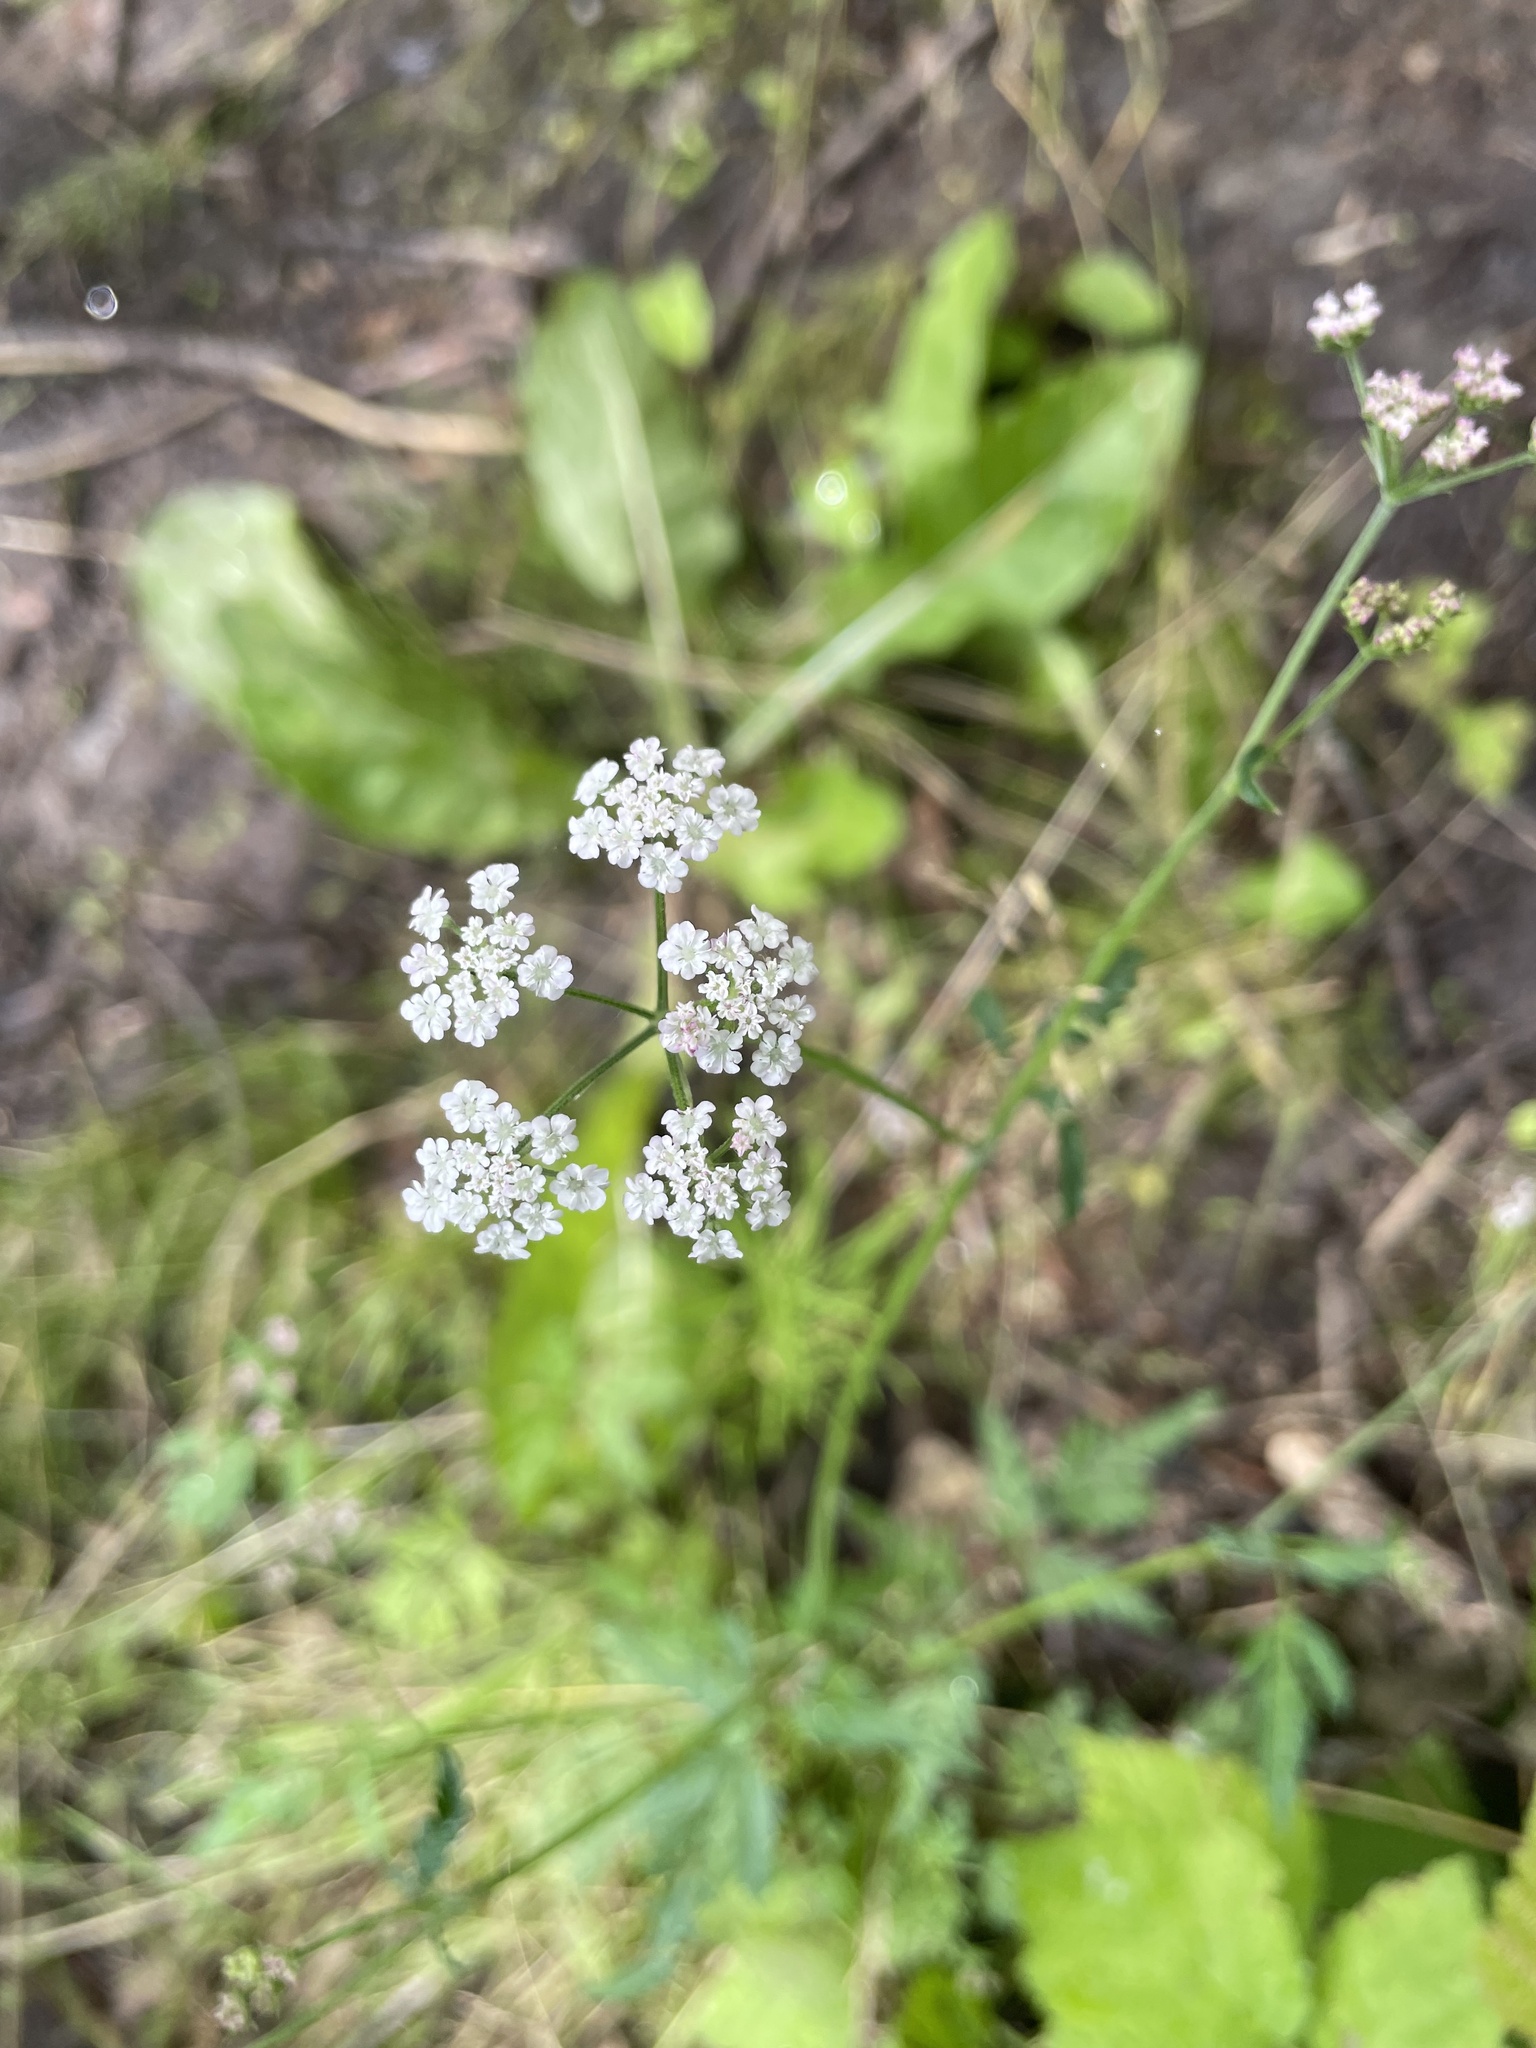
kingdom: Plantae
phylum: Tracheophyta
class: Magnoliopsida
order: Apiales
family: Apiaceae
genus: Torilis
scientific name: Torilis japonica
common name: Upright hedge-parsley
